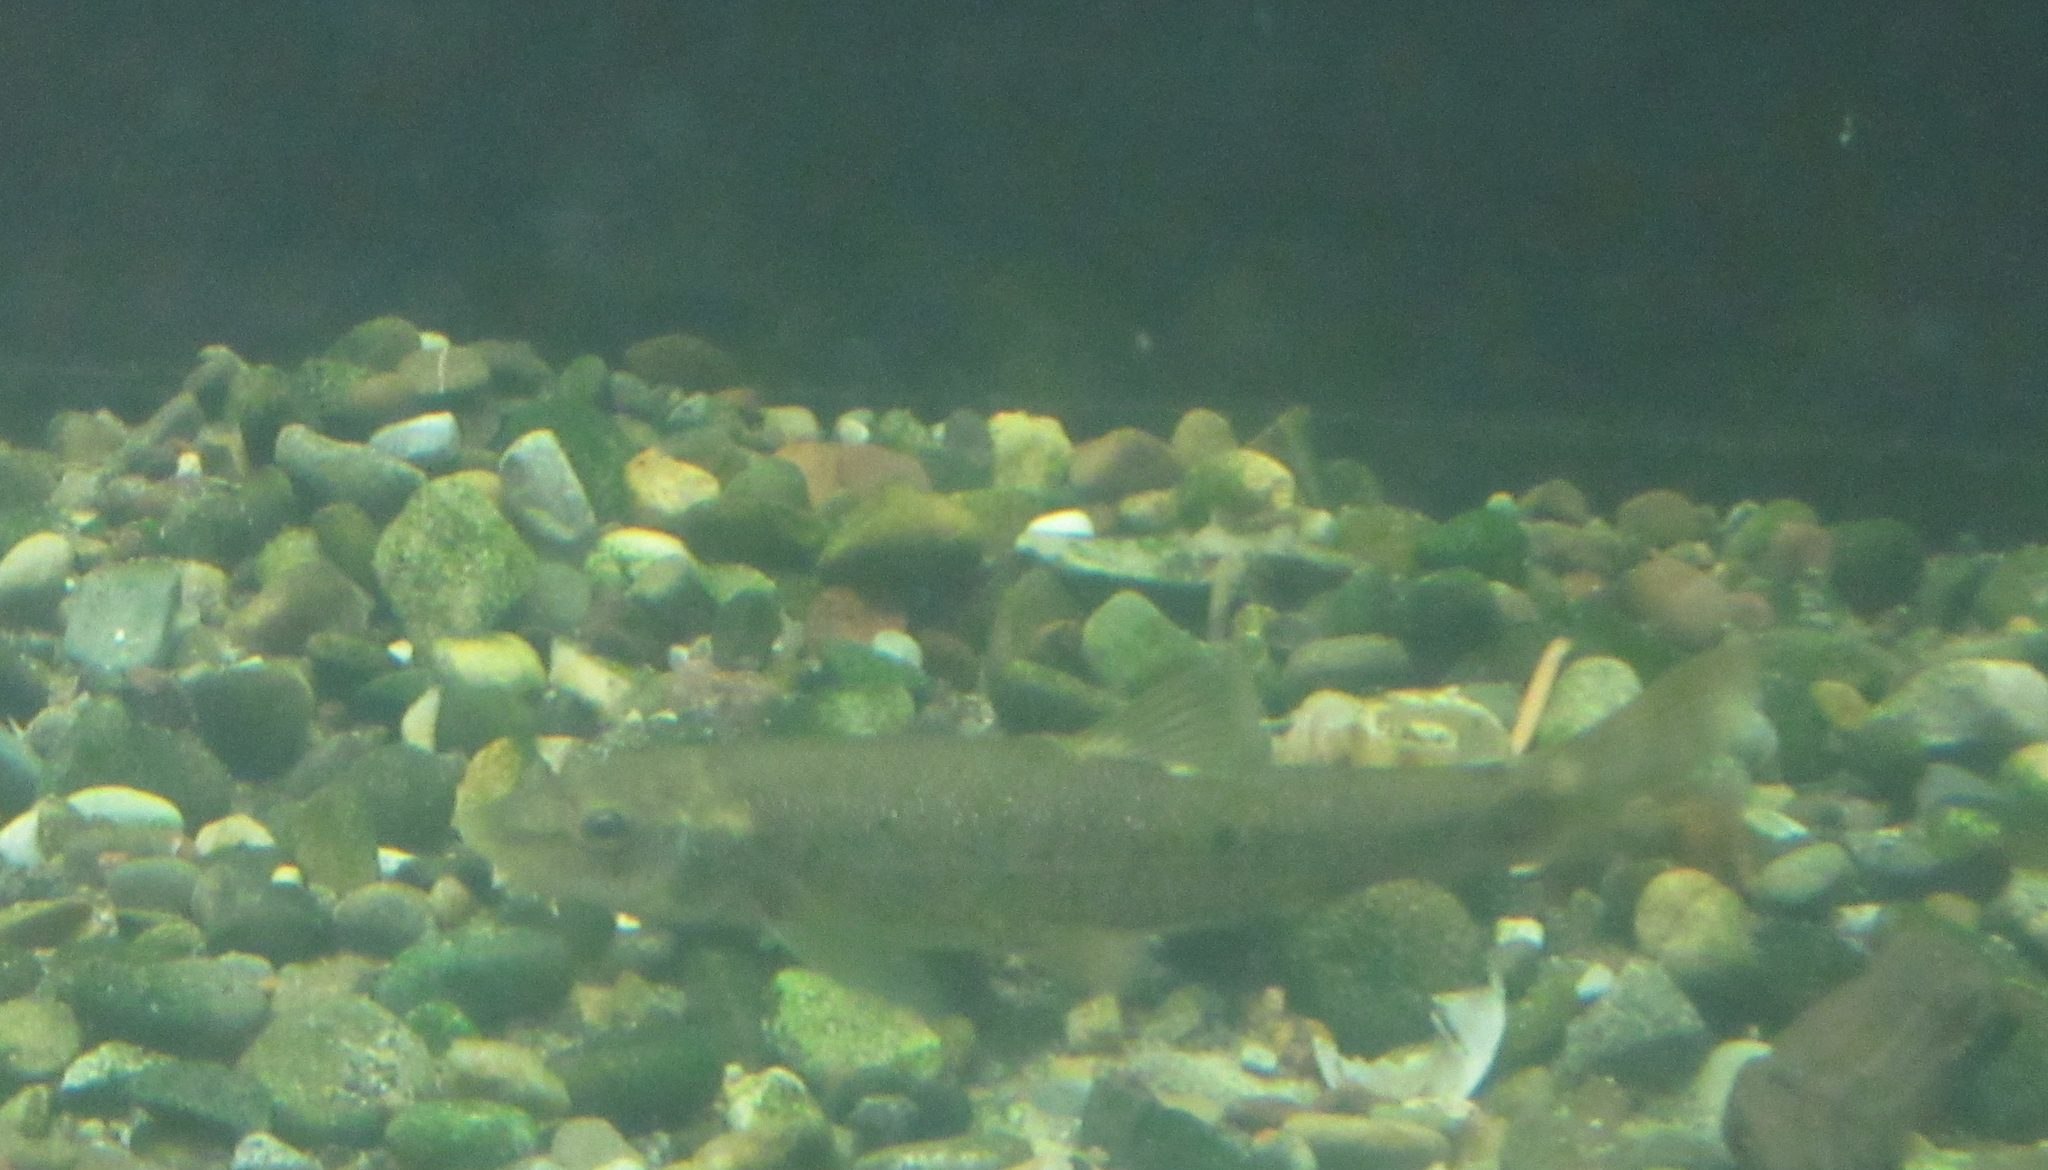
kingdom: Animalia
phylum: Chordata
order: Cypriniformes
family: Cyprinidae
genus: Rhinichthys
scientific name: Rhinichthys cataractae
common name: Longnose dace
